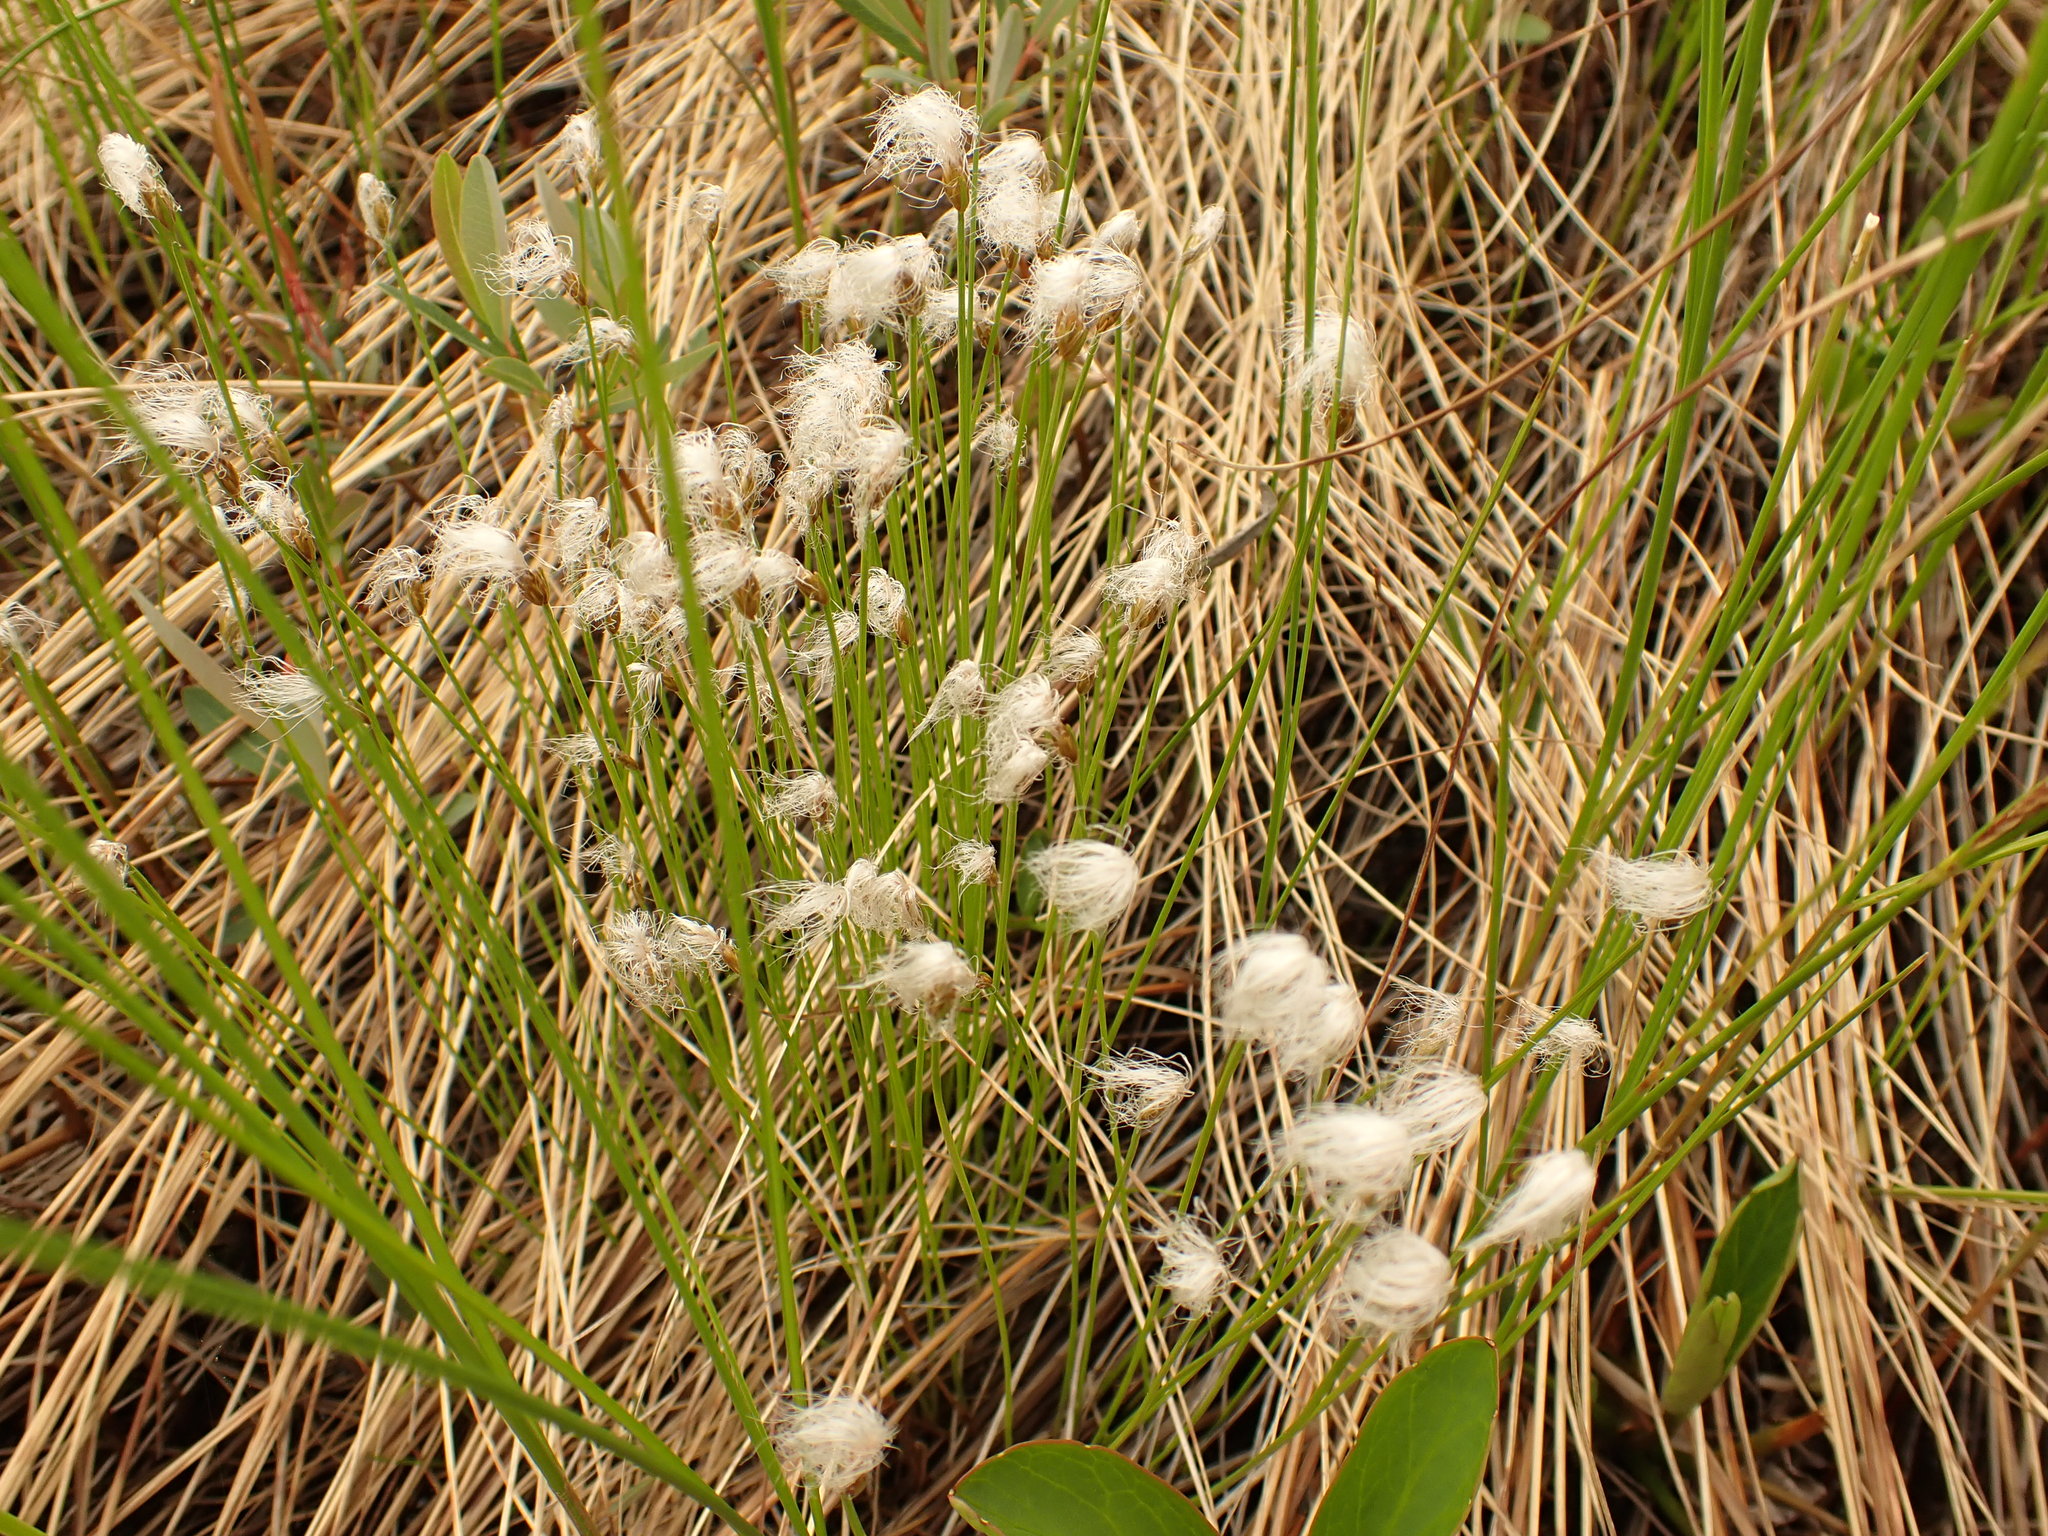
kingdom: Plantae
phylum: Tracheophyta
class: Liliopsida
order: Poales
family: Cyperaceae
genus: Trichophorum
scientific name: Trichophorum alpinum
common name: Alpine bulrush
